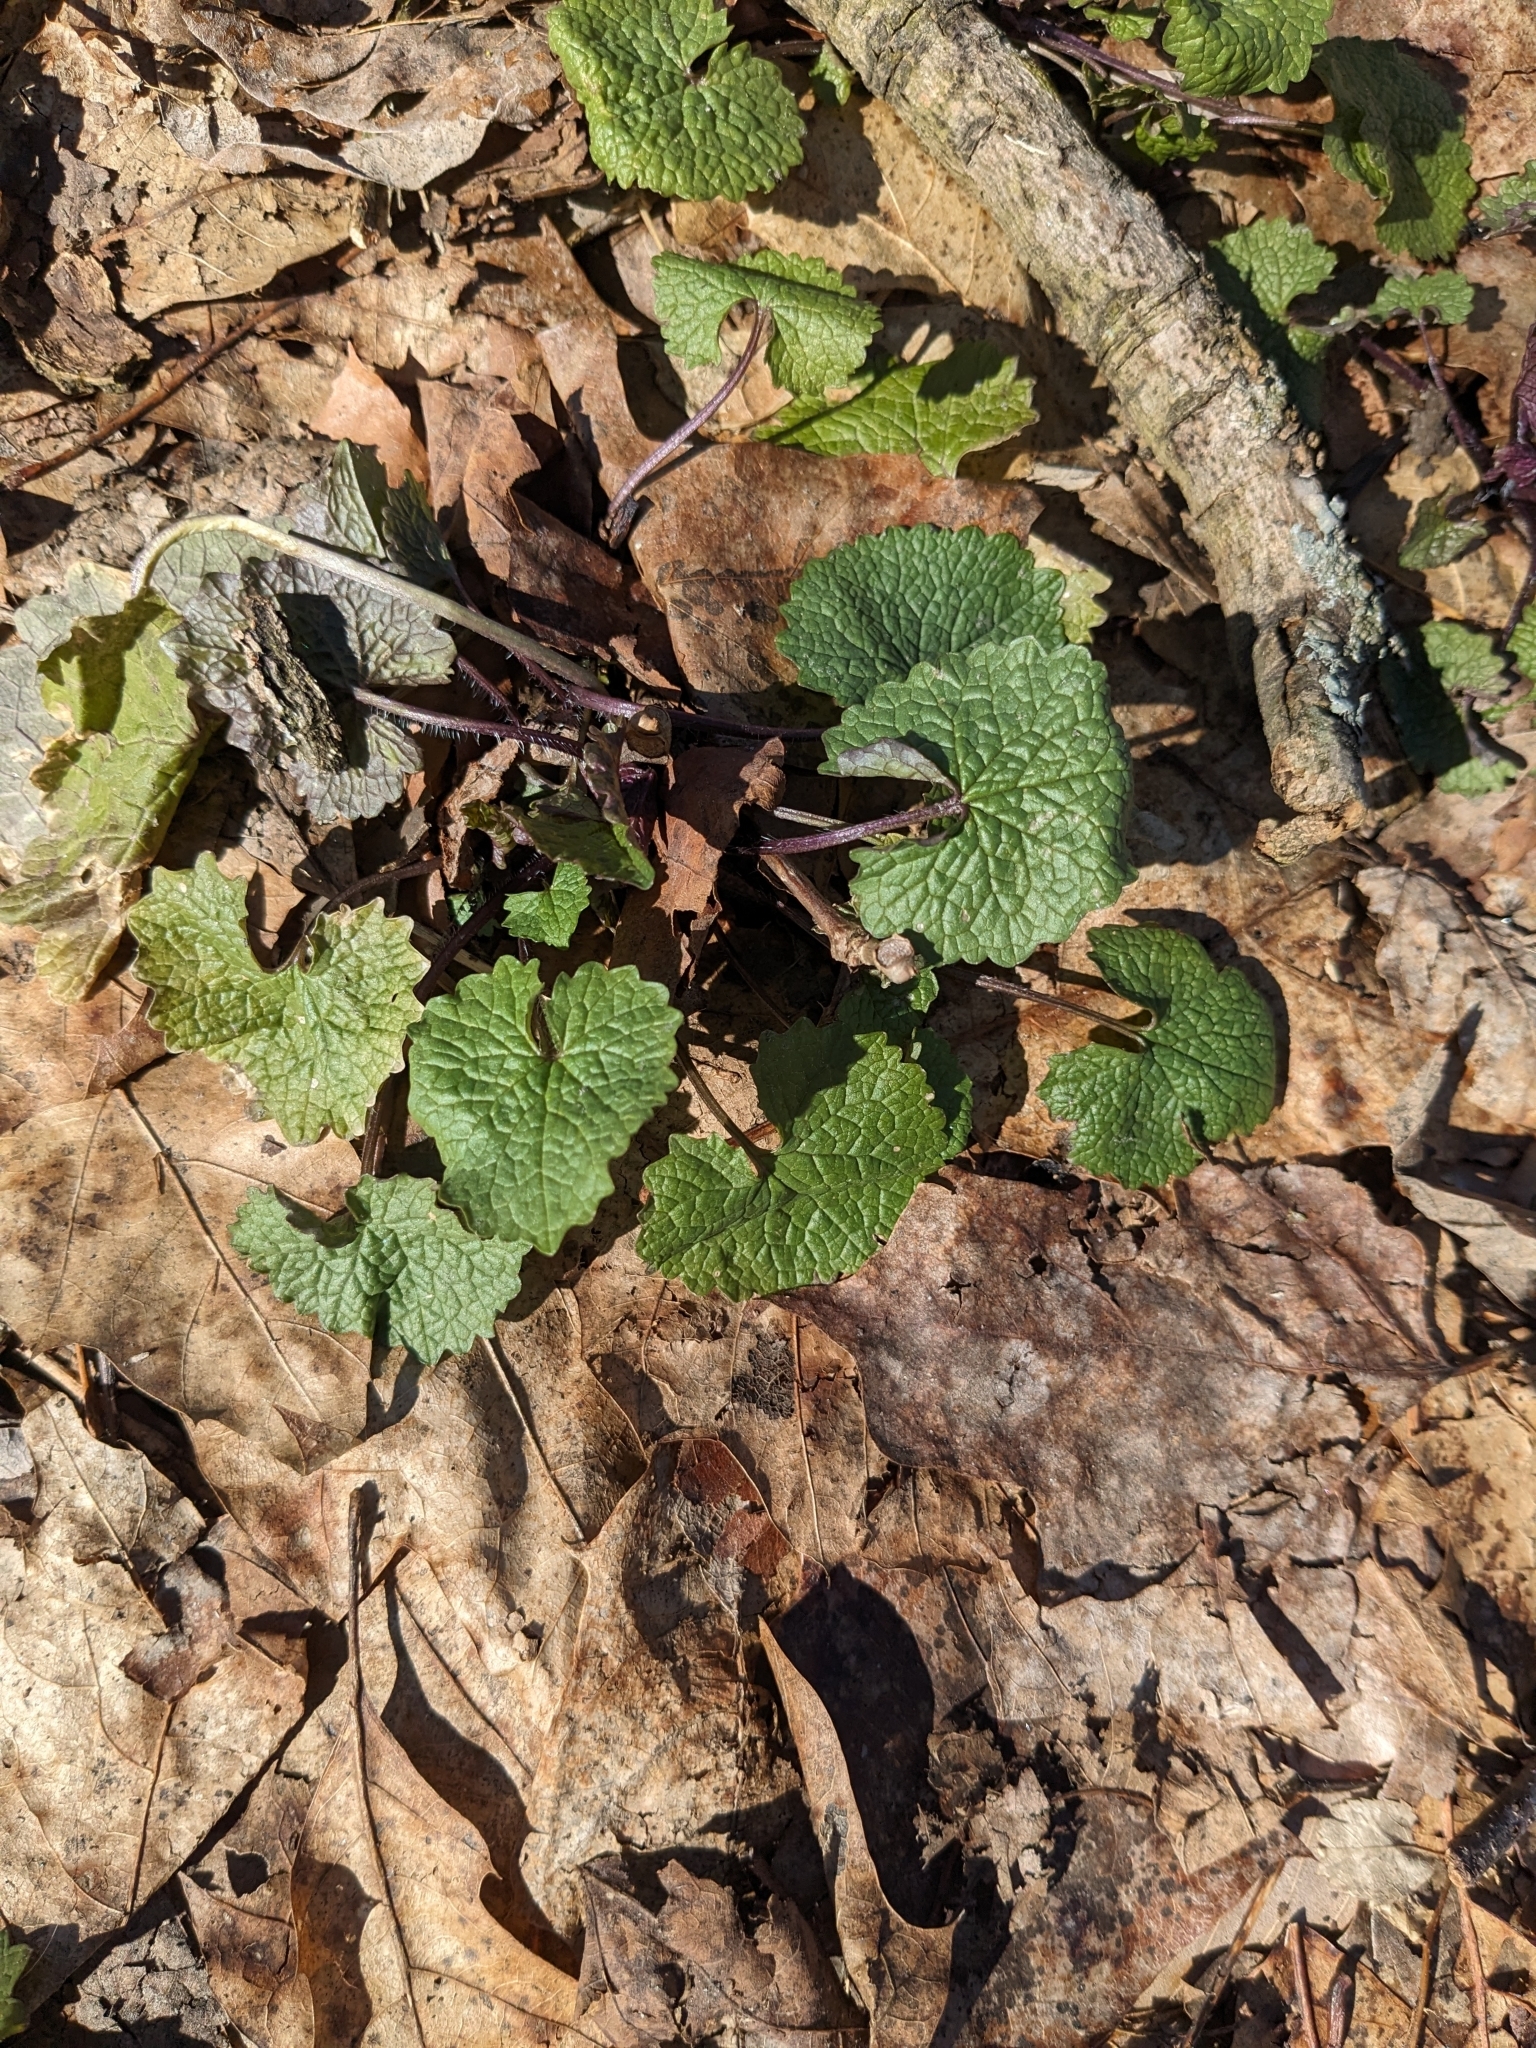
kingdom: Plantae
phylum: Tracheophyta
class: Magnoliopsida
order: Brassicales
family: Brassicaceae
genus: Alliaria
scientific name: Alliaria petiolata
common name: Garlic mustard
